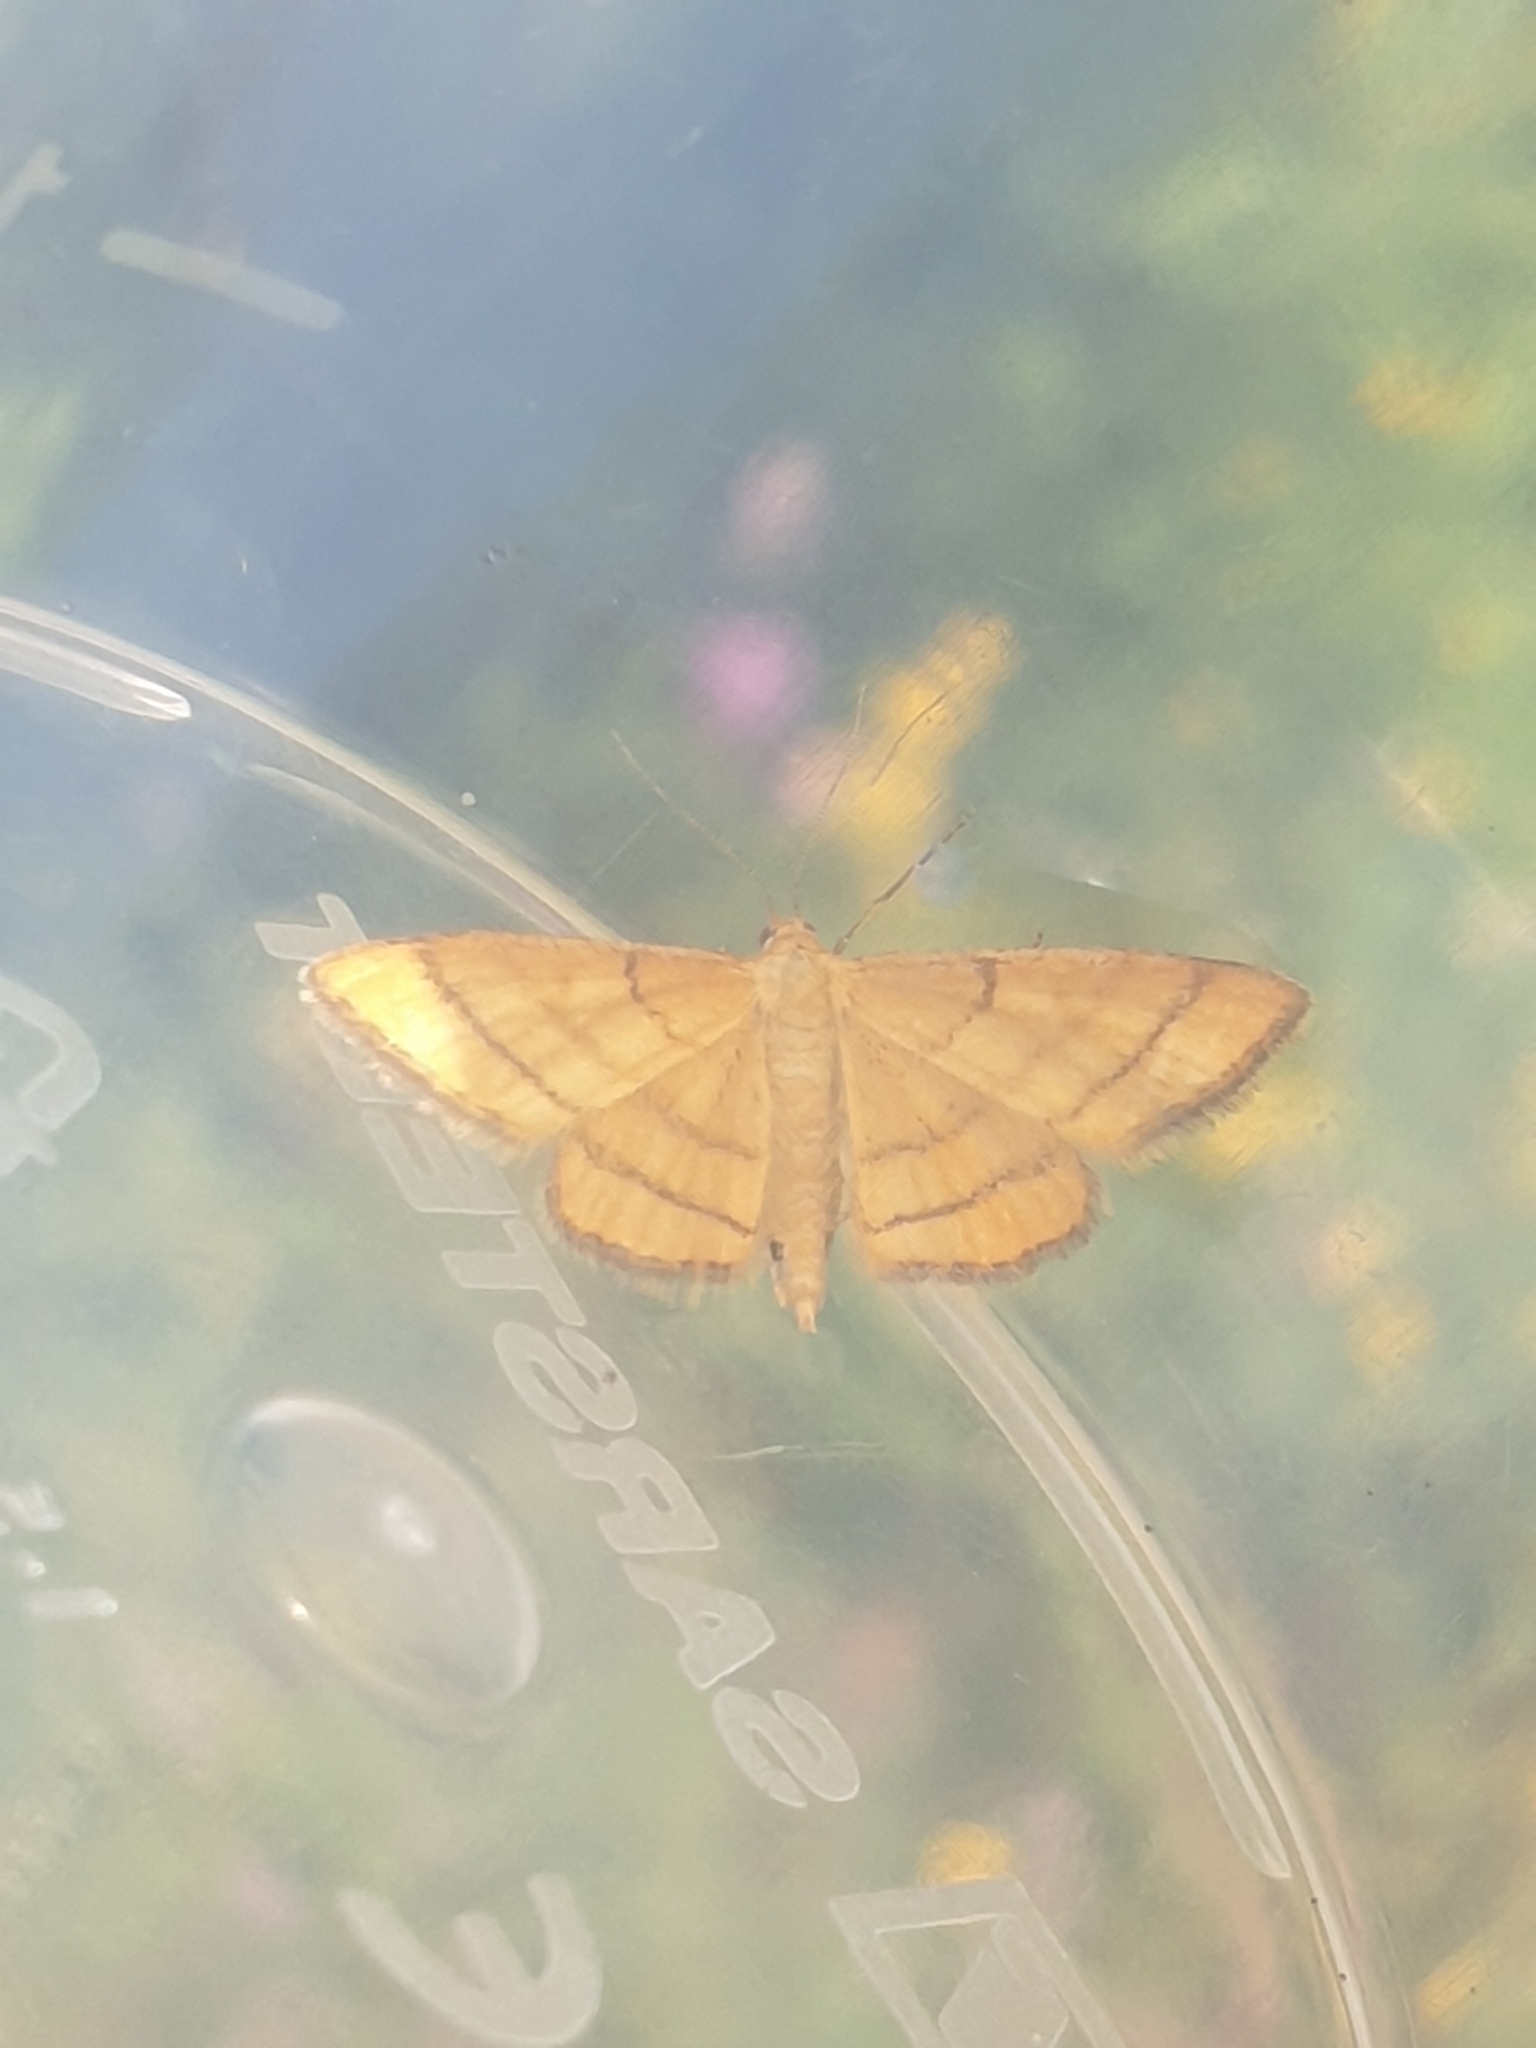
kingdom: Animalia
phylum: Arthropoda
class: Insecta
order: Lepidoptera
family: Geometridae
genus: Idaea
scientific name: Idaea aureolaria
